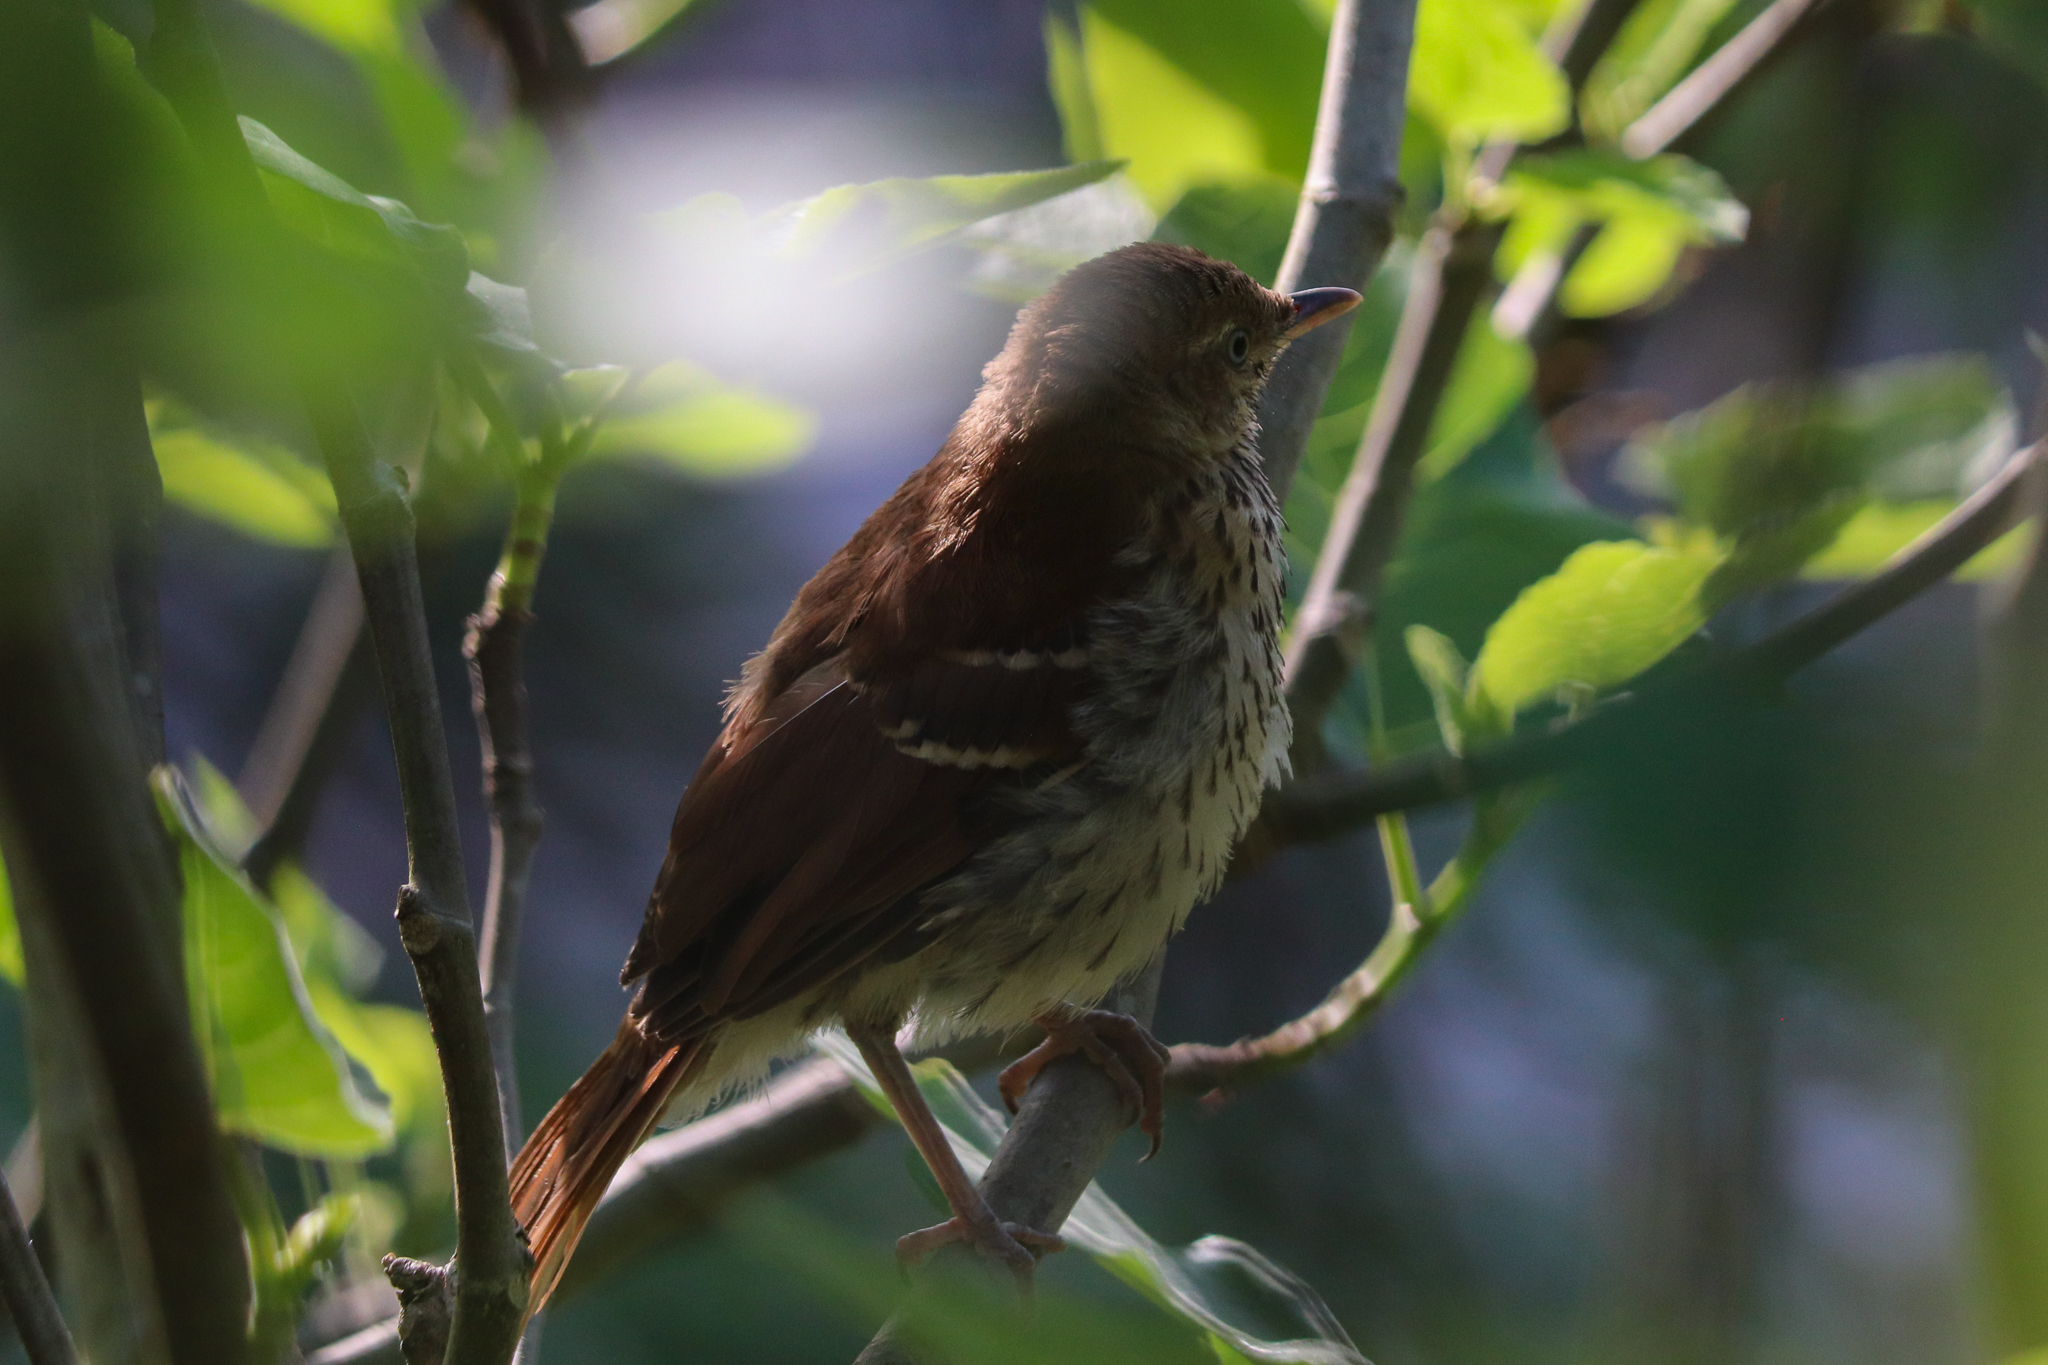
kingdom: Animalia
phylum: Chordata
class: Aves
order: Passeriformes
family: Mimidae
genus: Toxostoma
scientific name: Toxostoma rufum
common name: Brown thrasher
